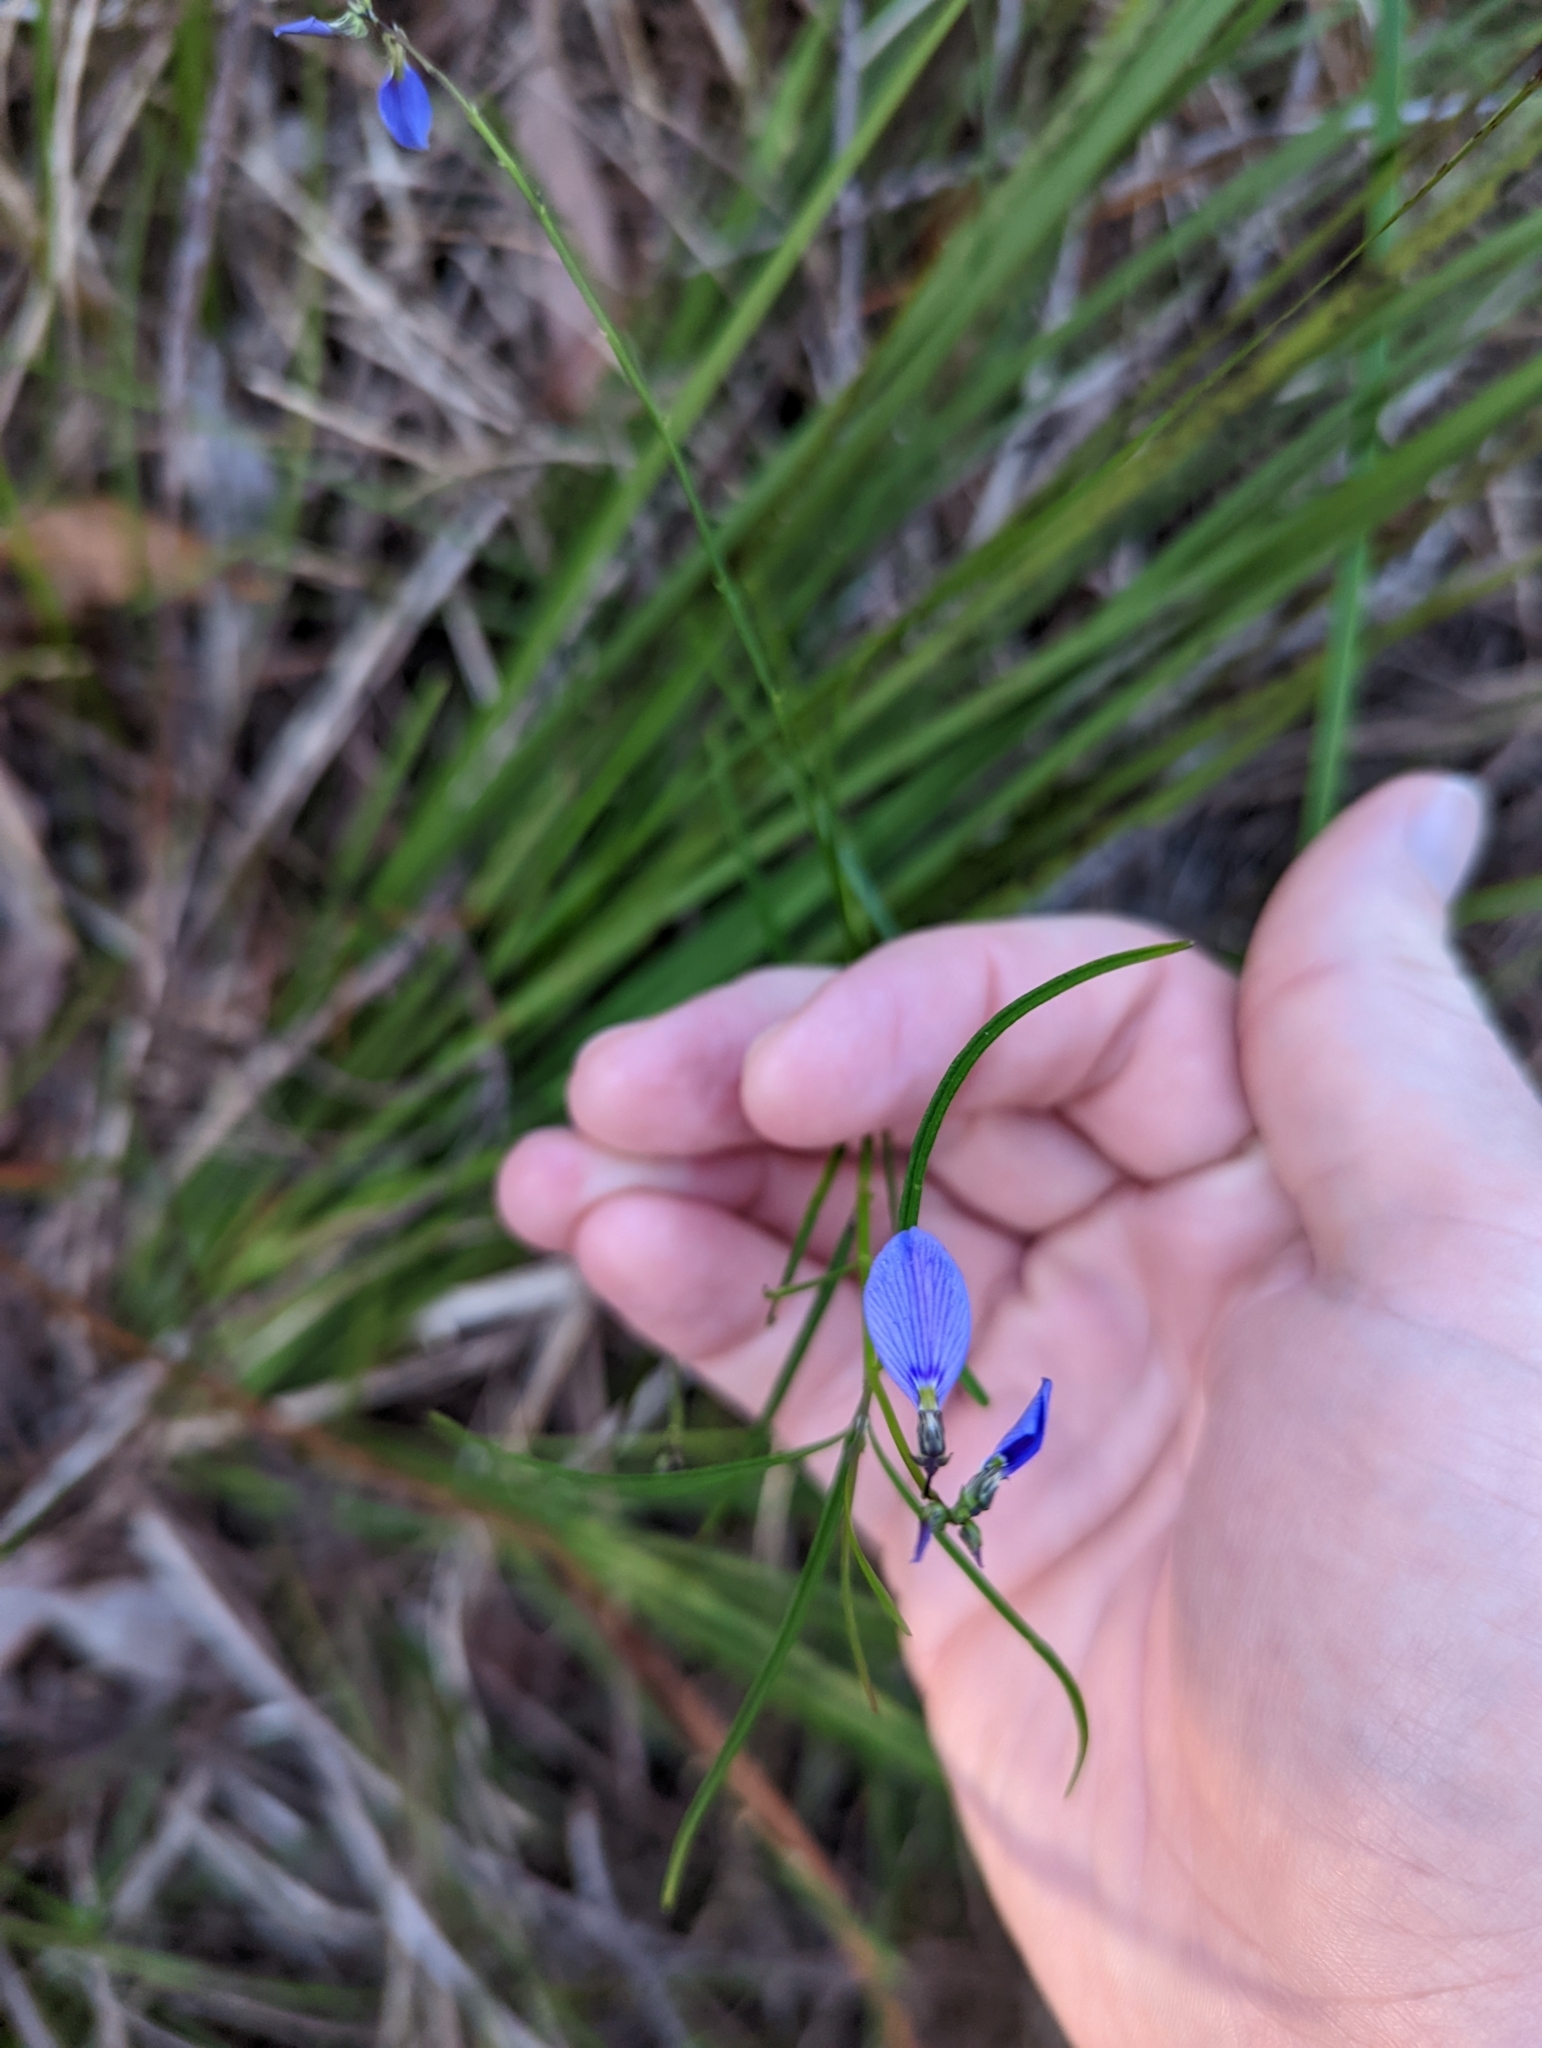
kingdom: Plantae
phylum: Tracheophyta
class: Magnoliopsida
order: Malpighiales
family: Violaceae
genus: Pigea
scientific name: Pigea monopetala
